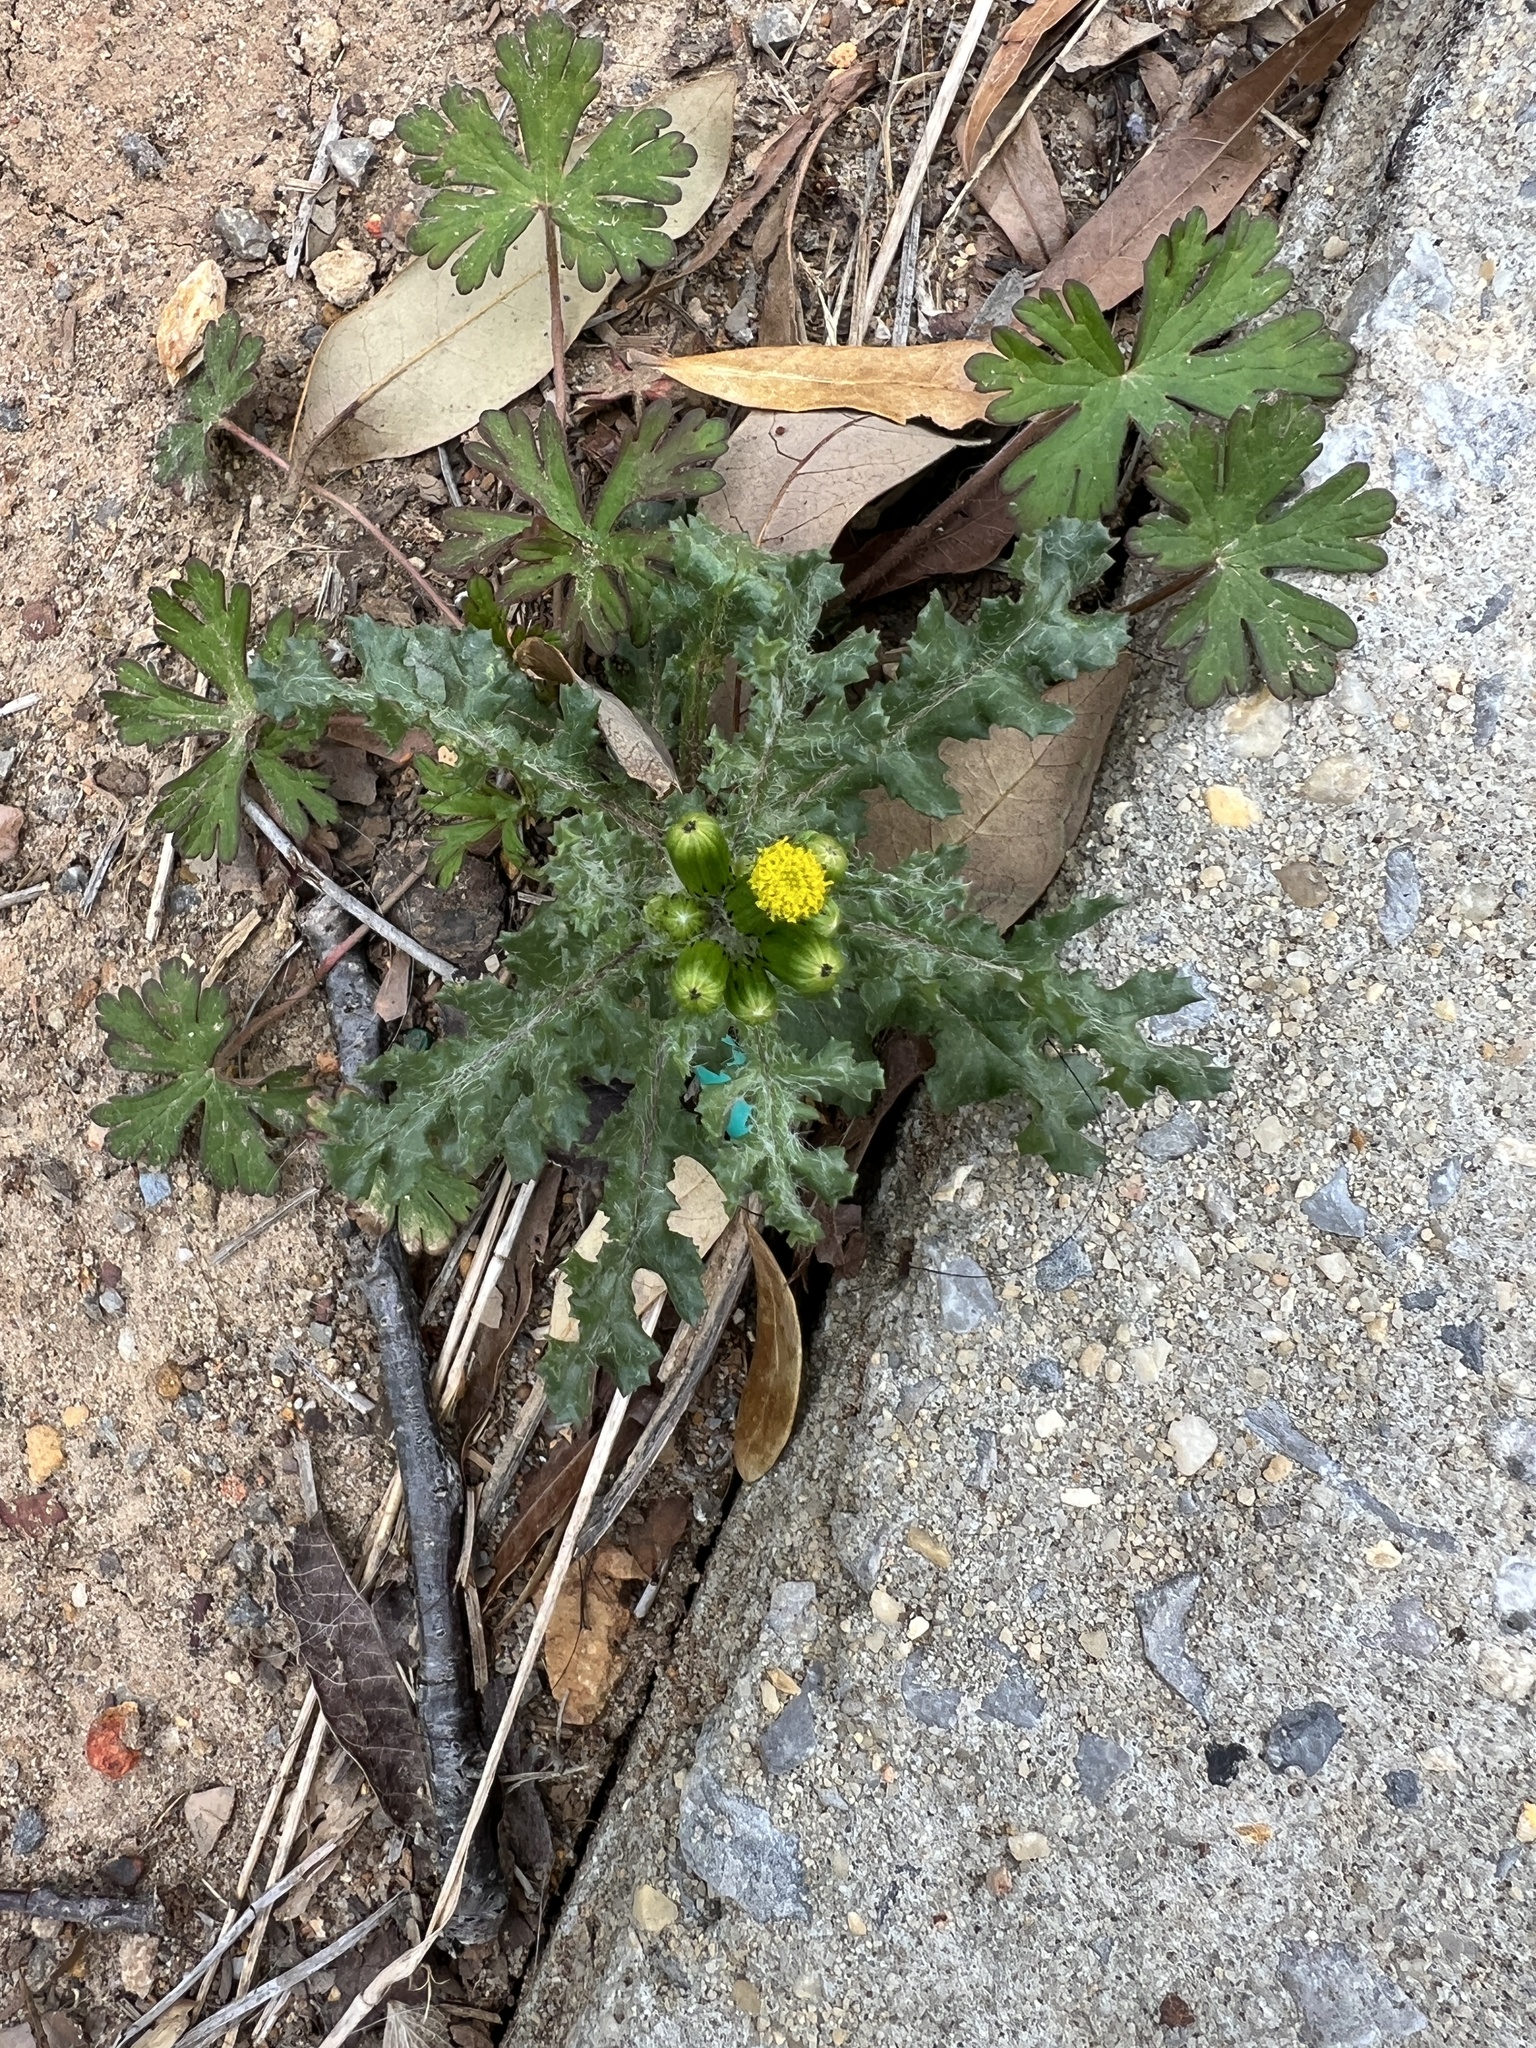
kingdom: Plantae
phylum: Tracheophyta
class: Magnoliopsida
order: Asterales
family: Asteraceae
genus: Senecio
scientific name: Senecio vulgaris
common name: Old-man-in-the-spring
